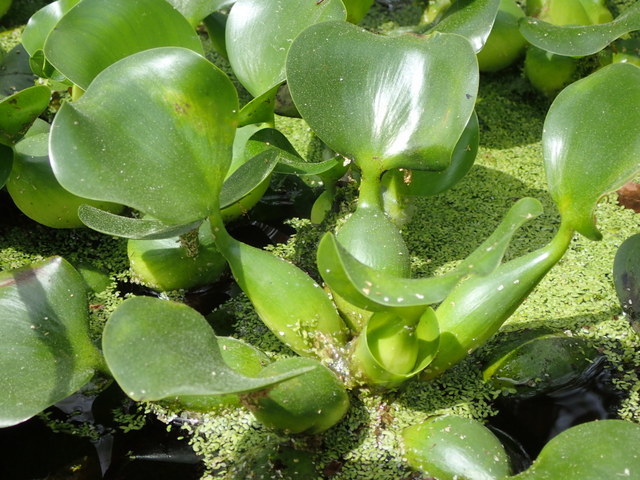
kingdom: Plantae
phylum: Tracheophyta
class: Liliopsida
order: Commelinales
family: Pontederiaceae
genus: Pontederia
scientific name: Pontederia crassipes
